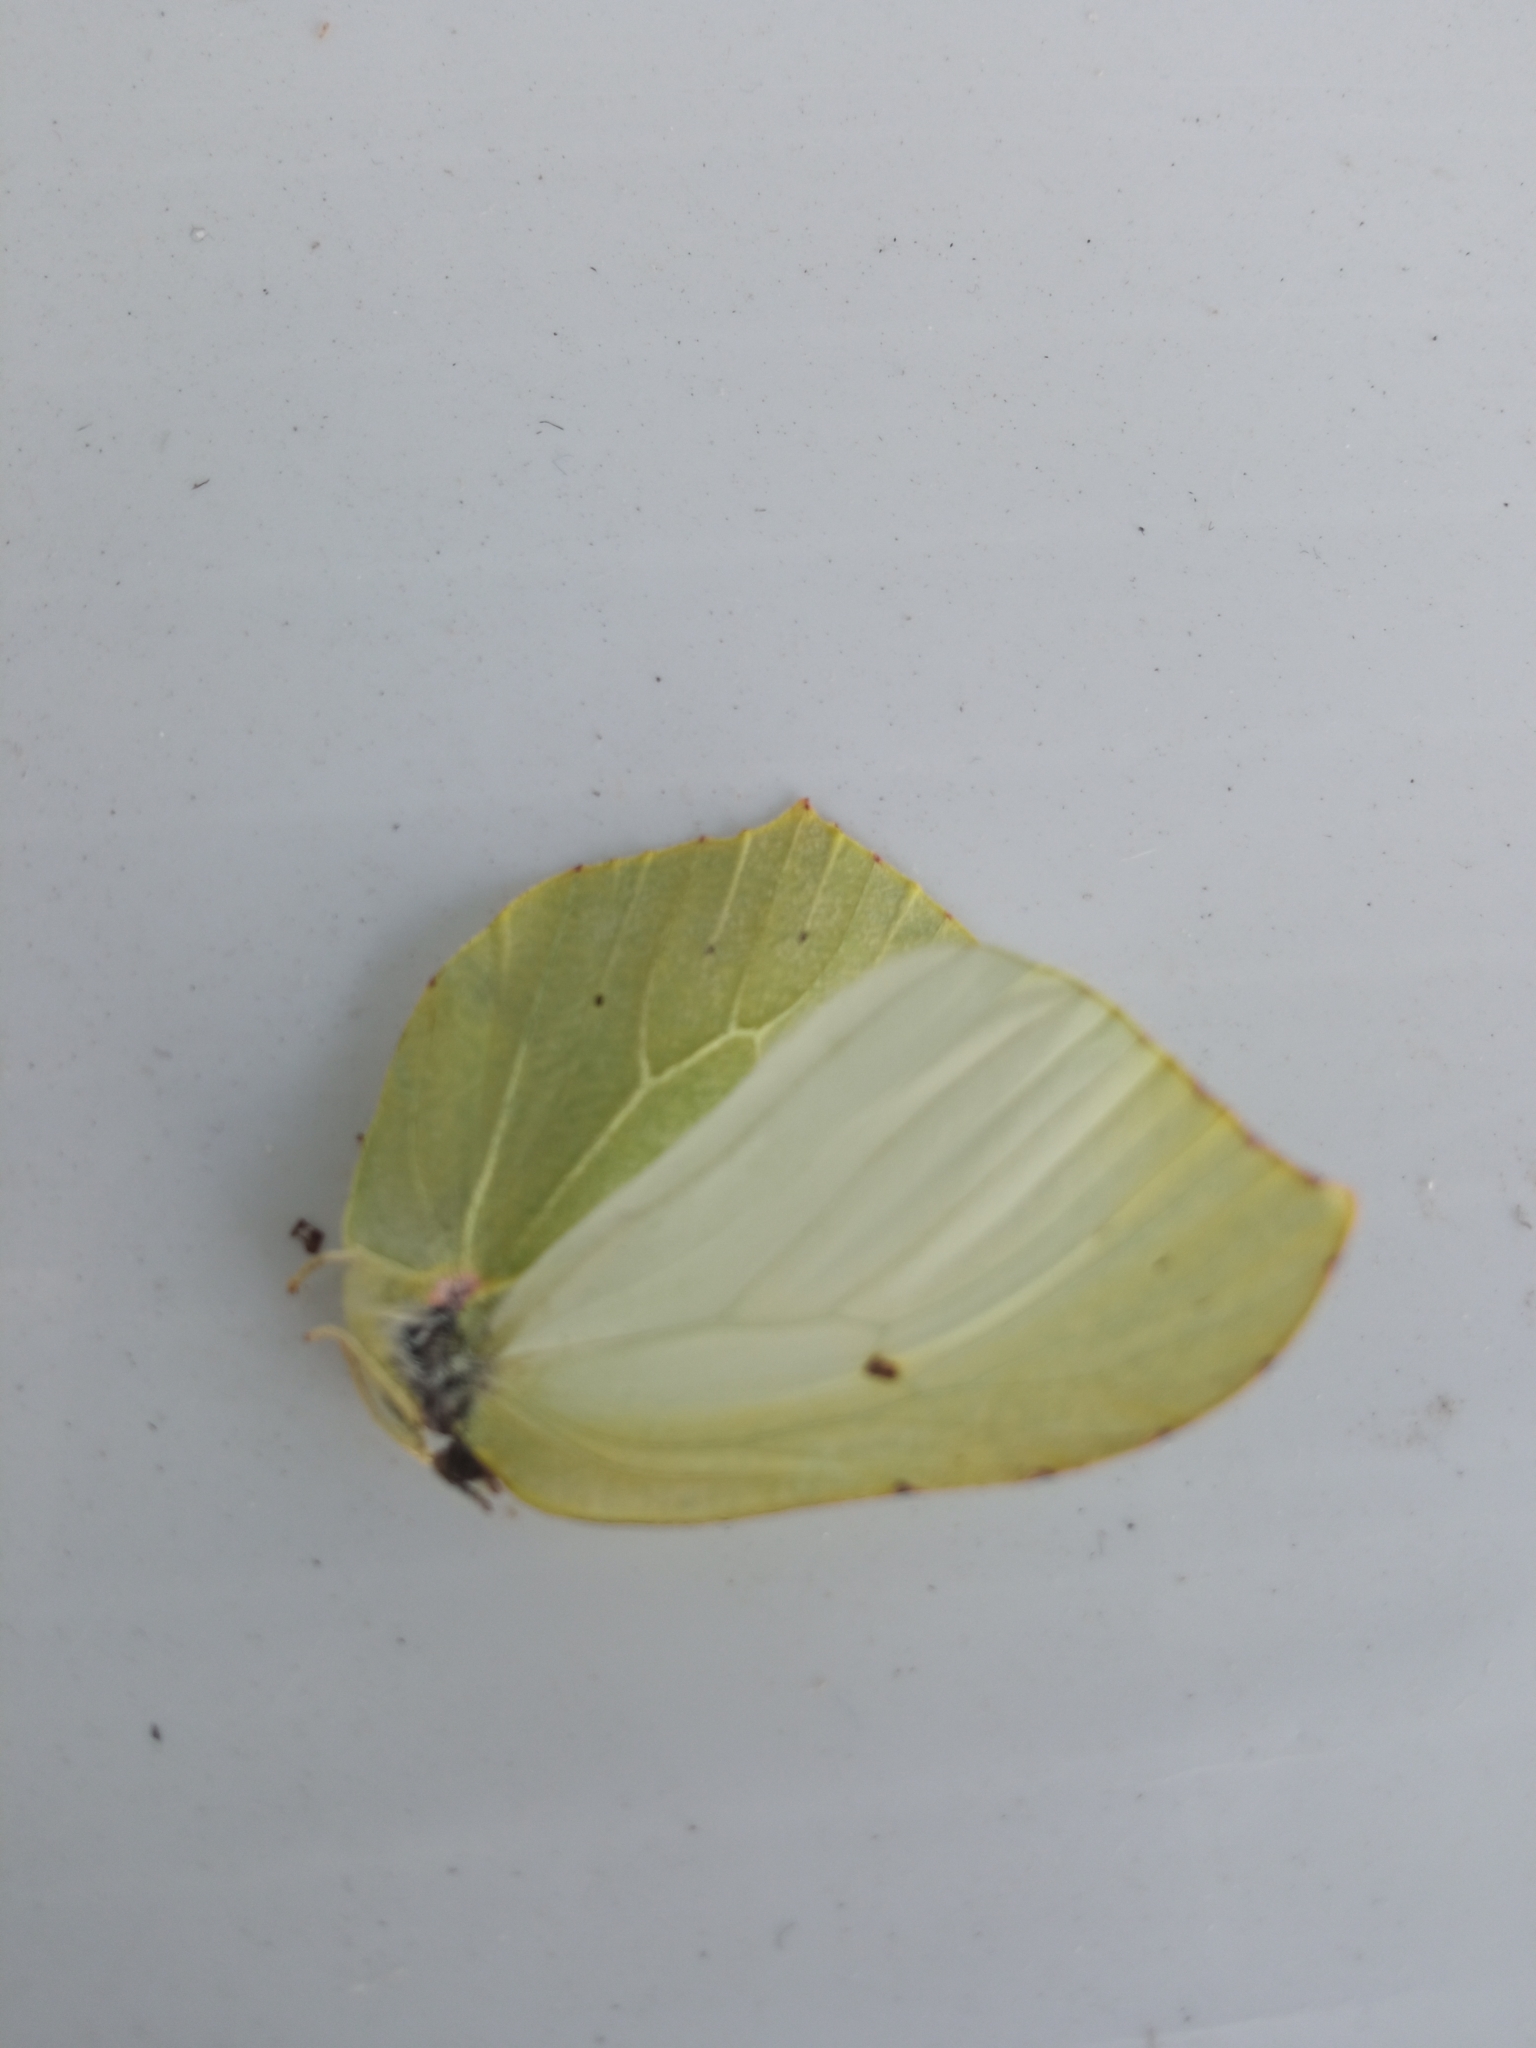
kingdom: Animalia
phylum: Arthropoda
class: Insecta
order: Lepidoptera
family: Pieridae
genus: Gonepteryx
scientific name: Gonepteryx rhamni
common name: Brimstone
